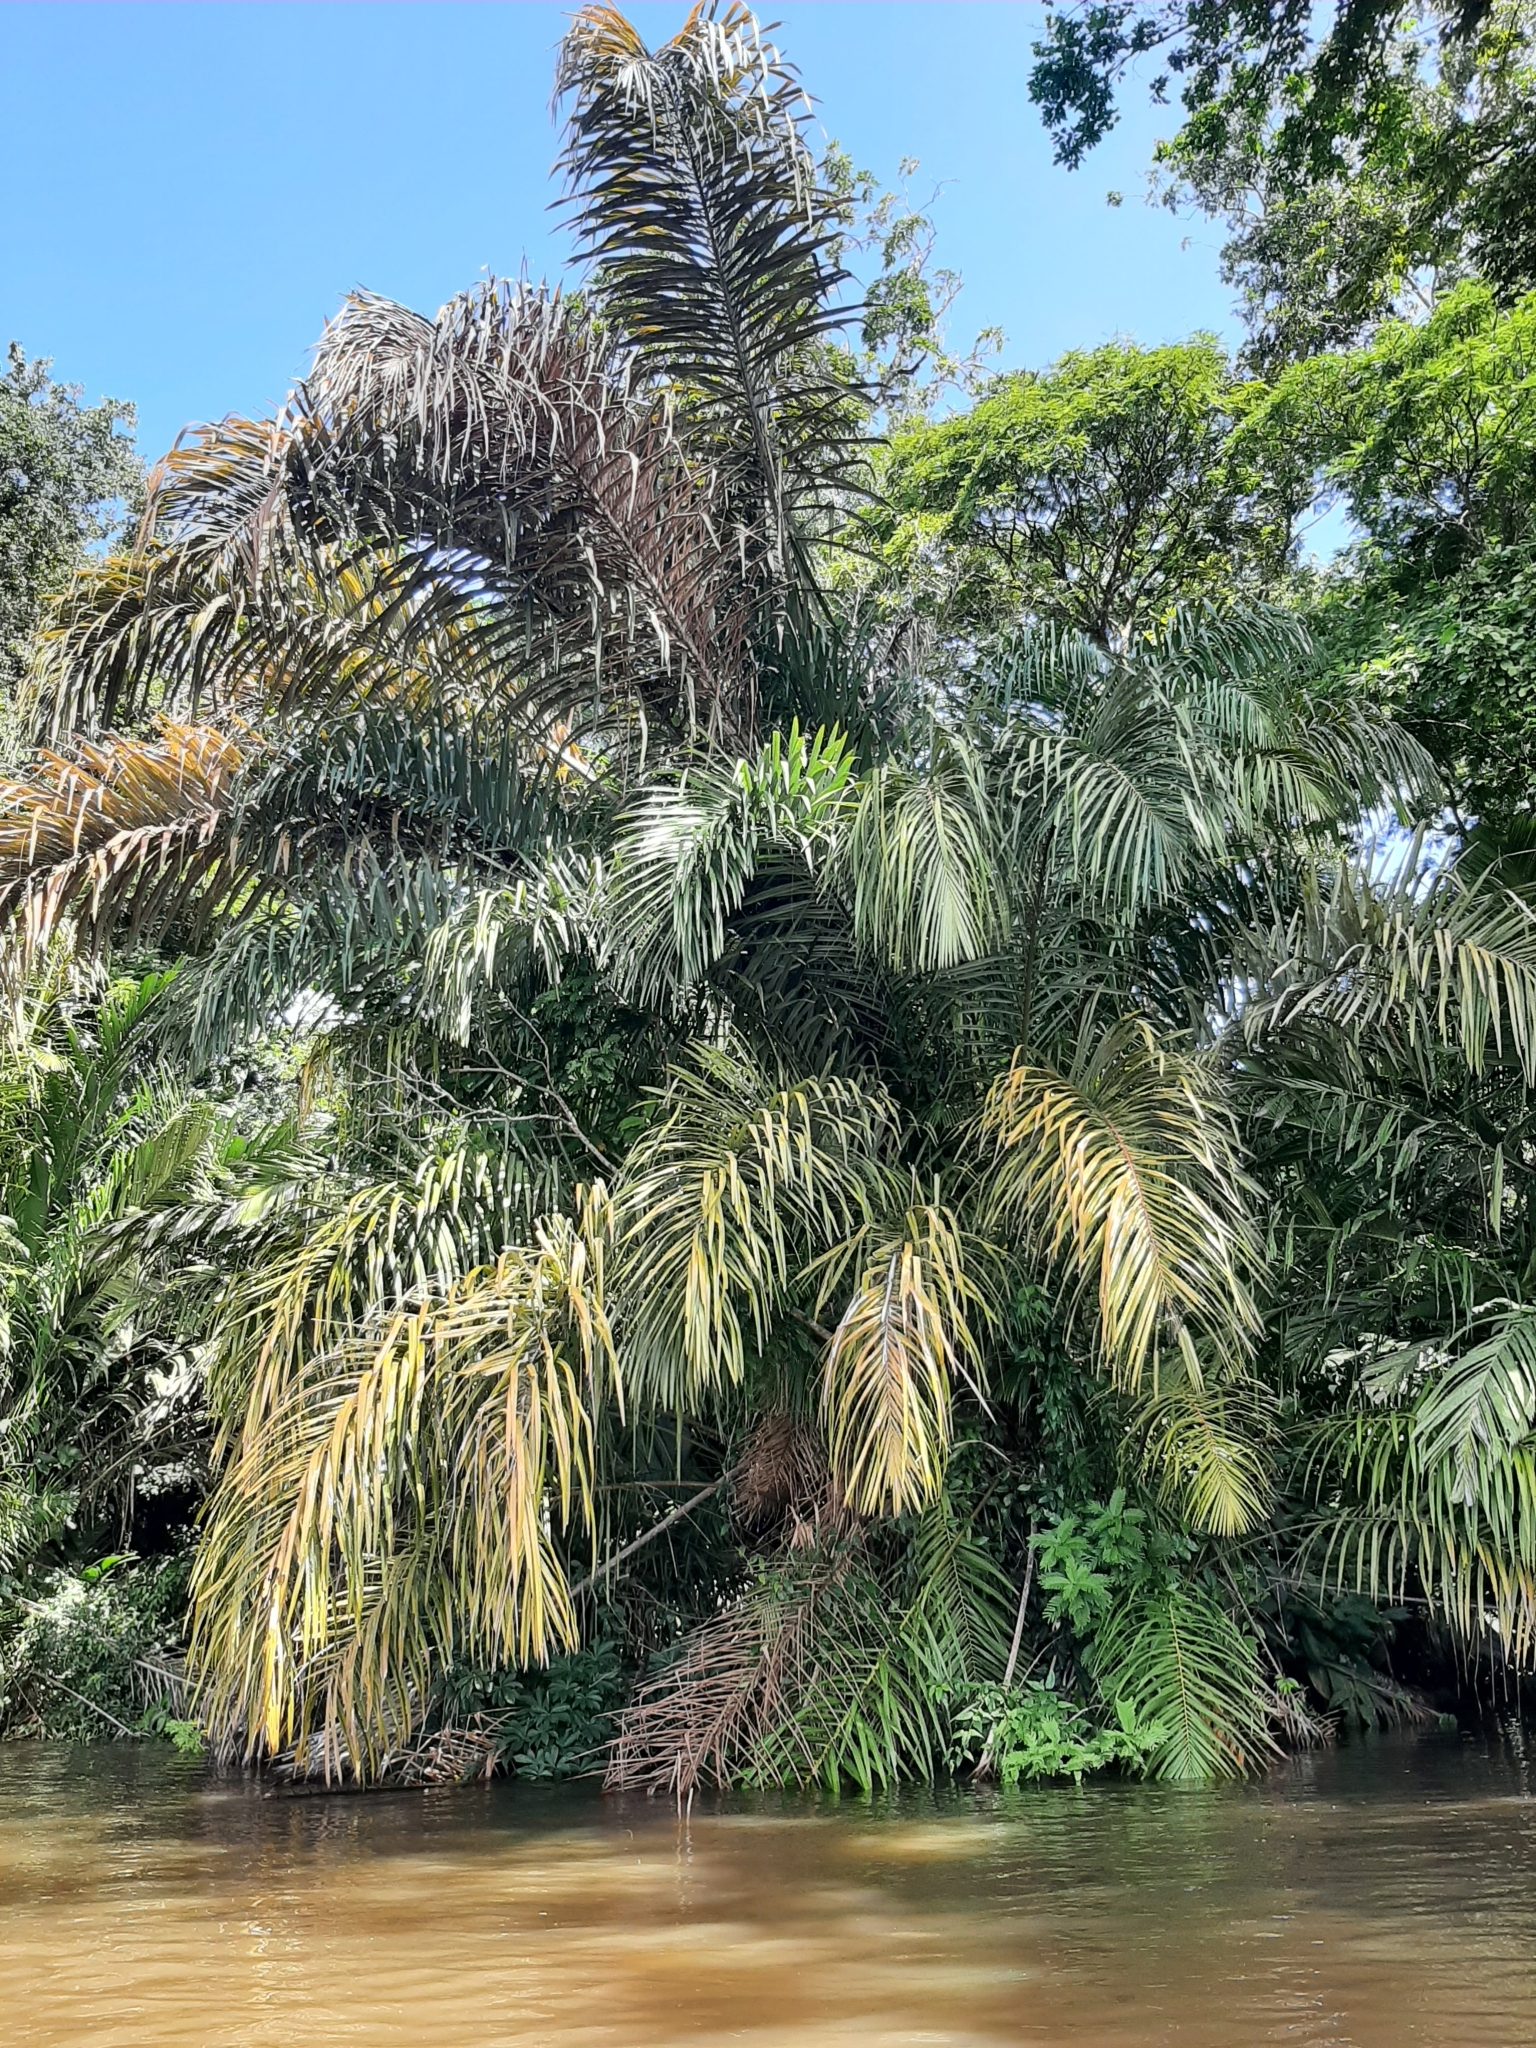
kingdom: Plantae
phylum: Tracheophyta
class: Liliopsida
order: Arecales
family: Arecaceae
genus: Raphia
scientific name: Raphia taedigera
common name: Pinecone palm
